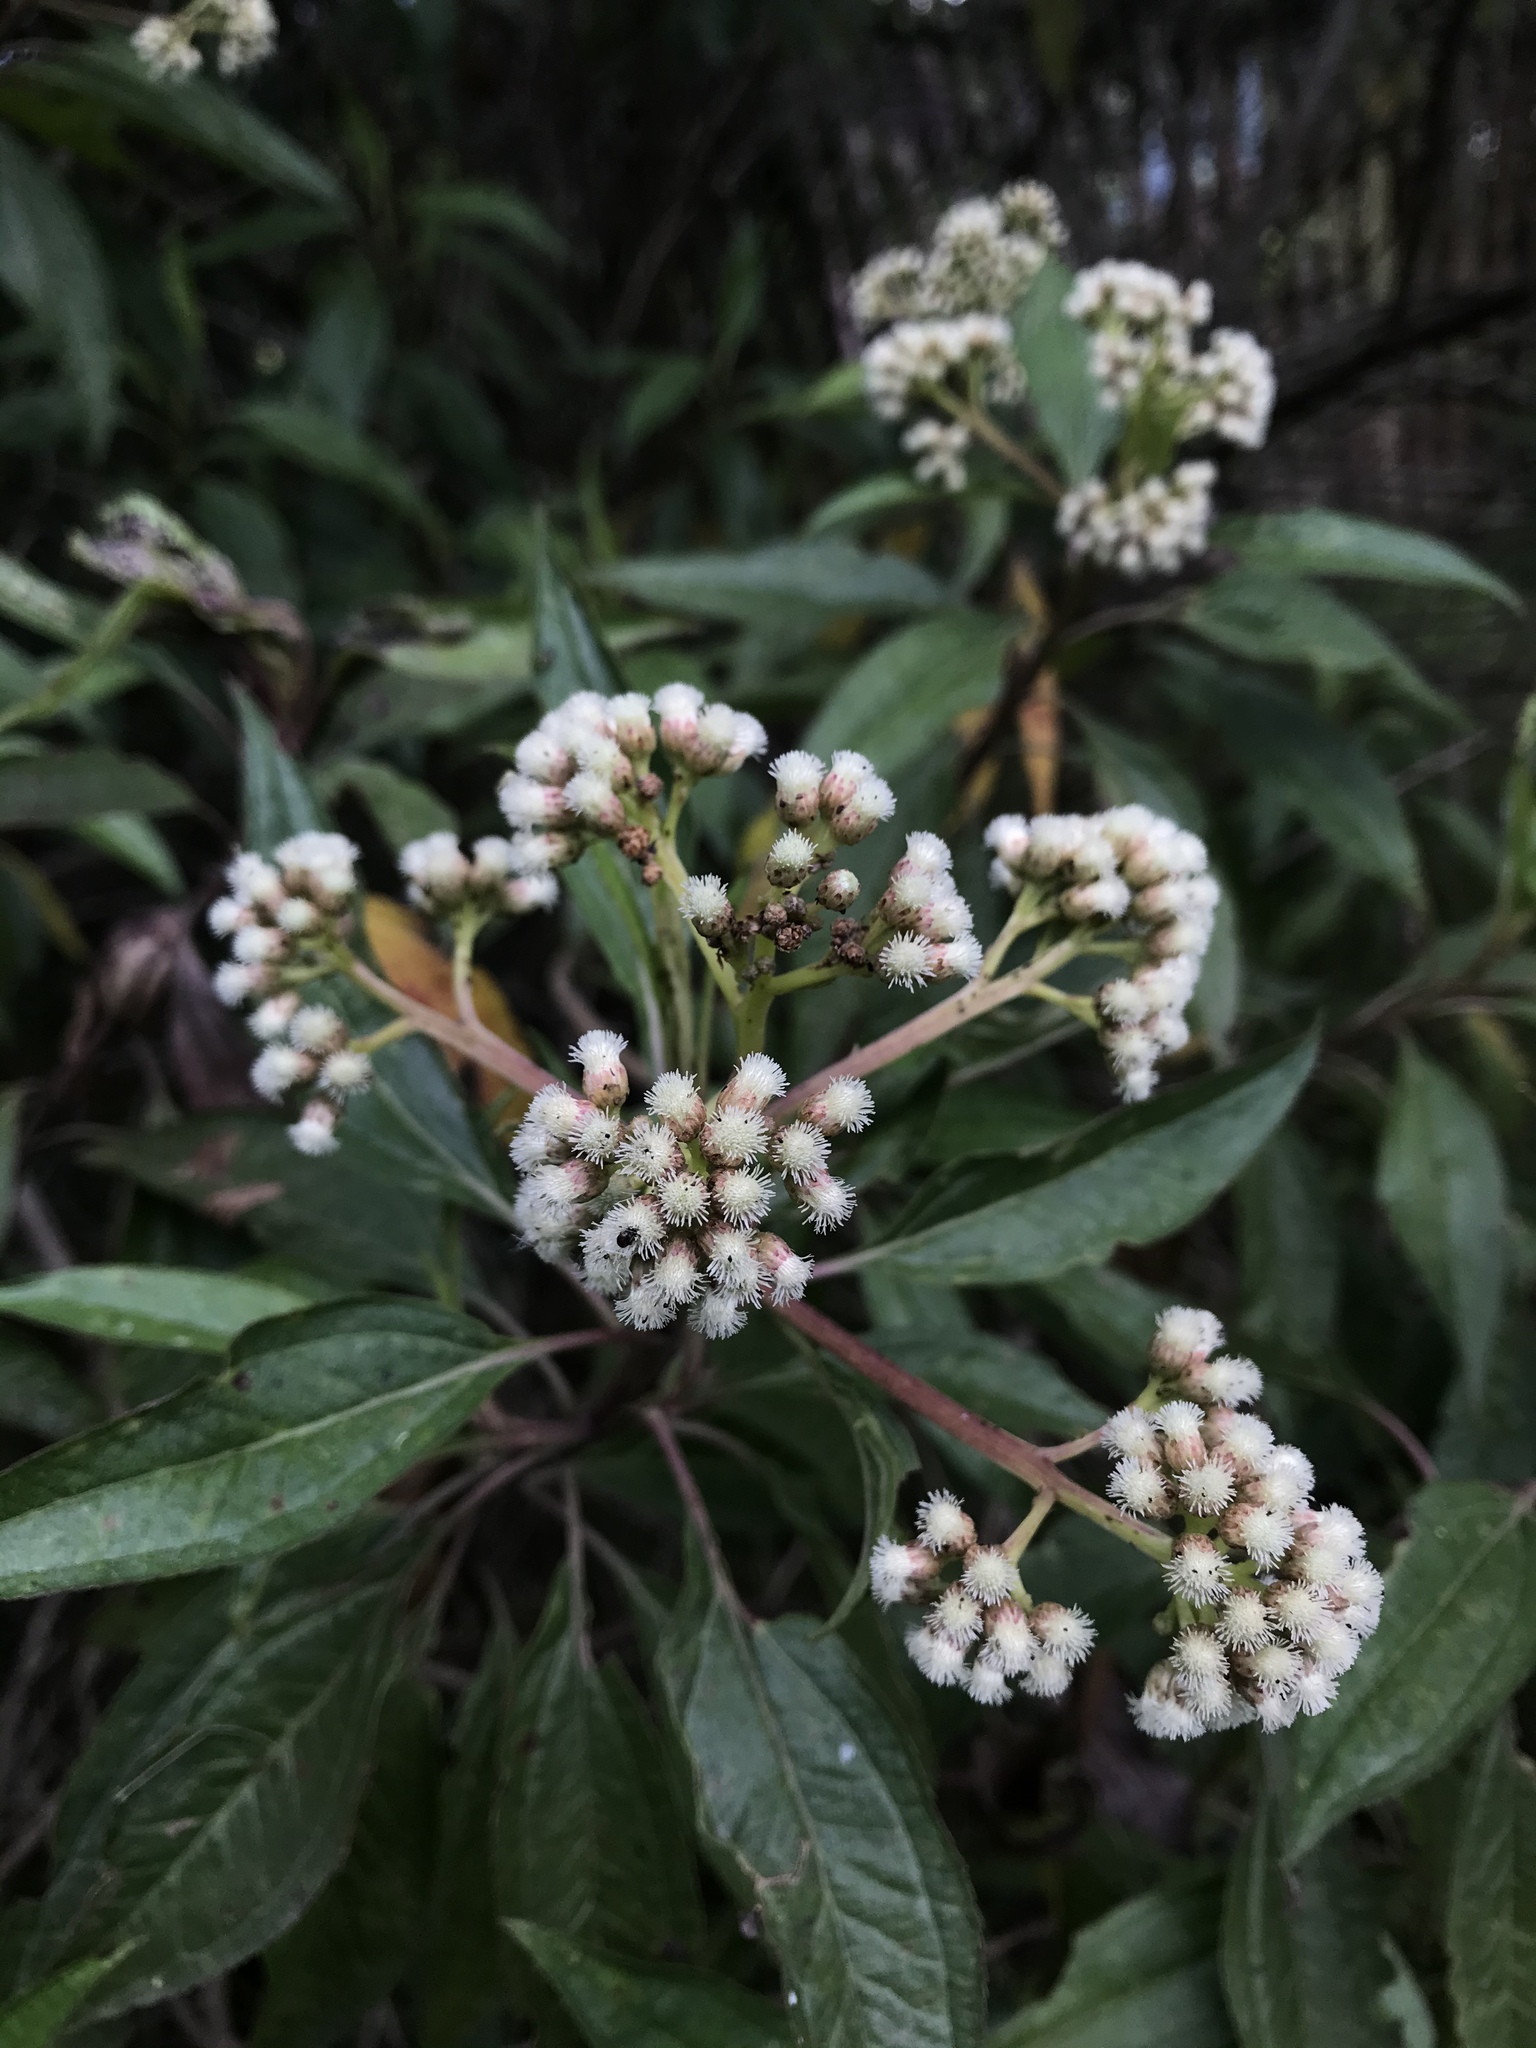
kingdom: Plantae
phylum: Tracheophyta
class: Magnoliopsida
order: Asterales
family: Asteraceae
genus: Baccharis
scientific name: Baccharis latifolia
